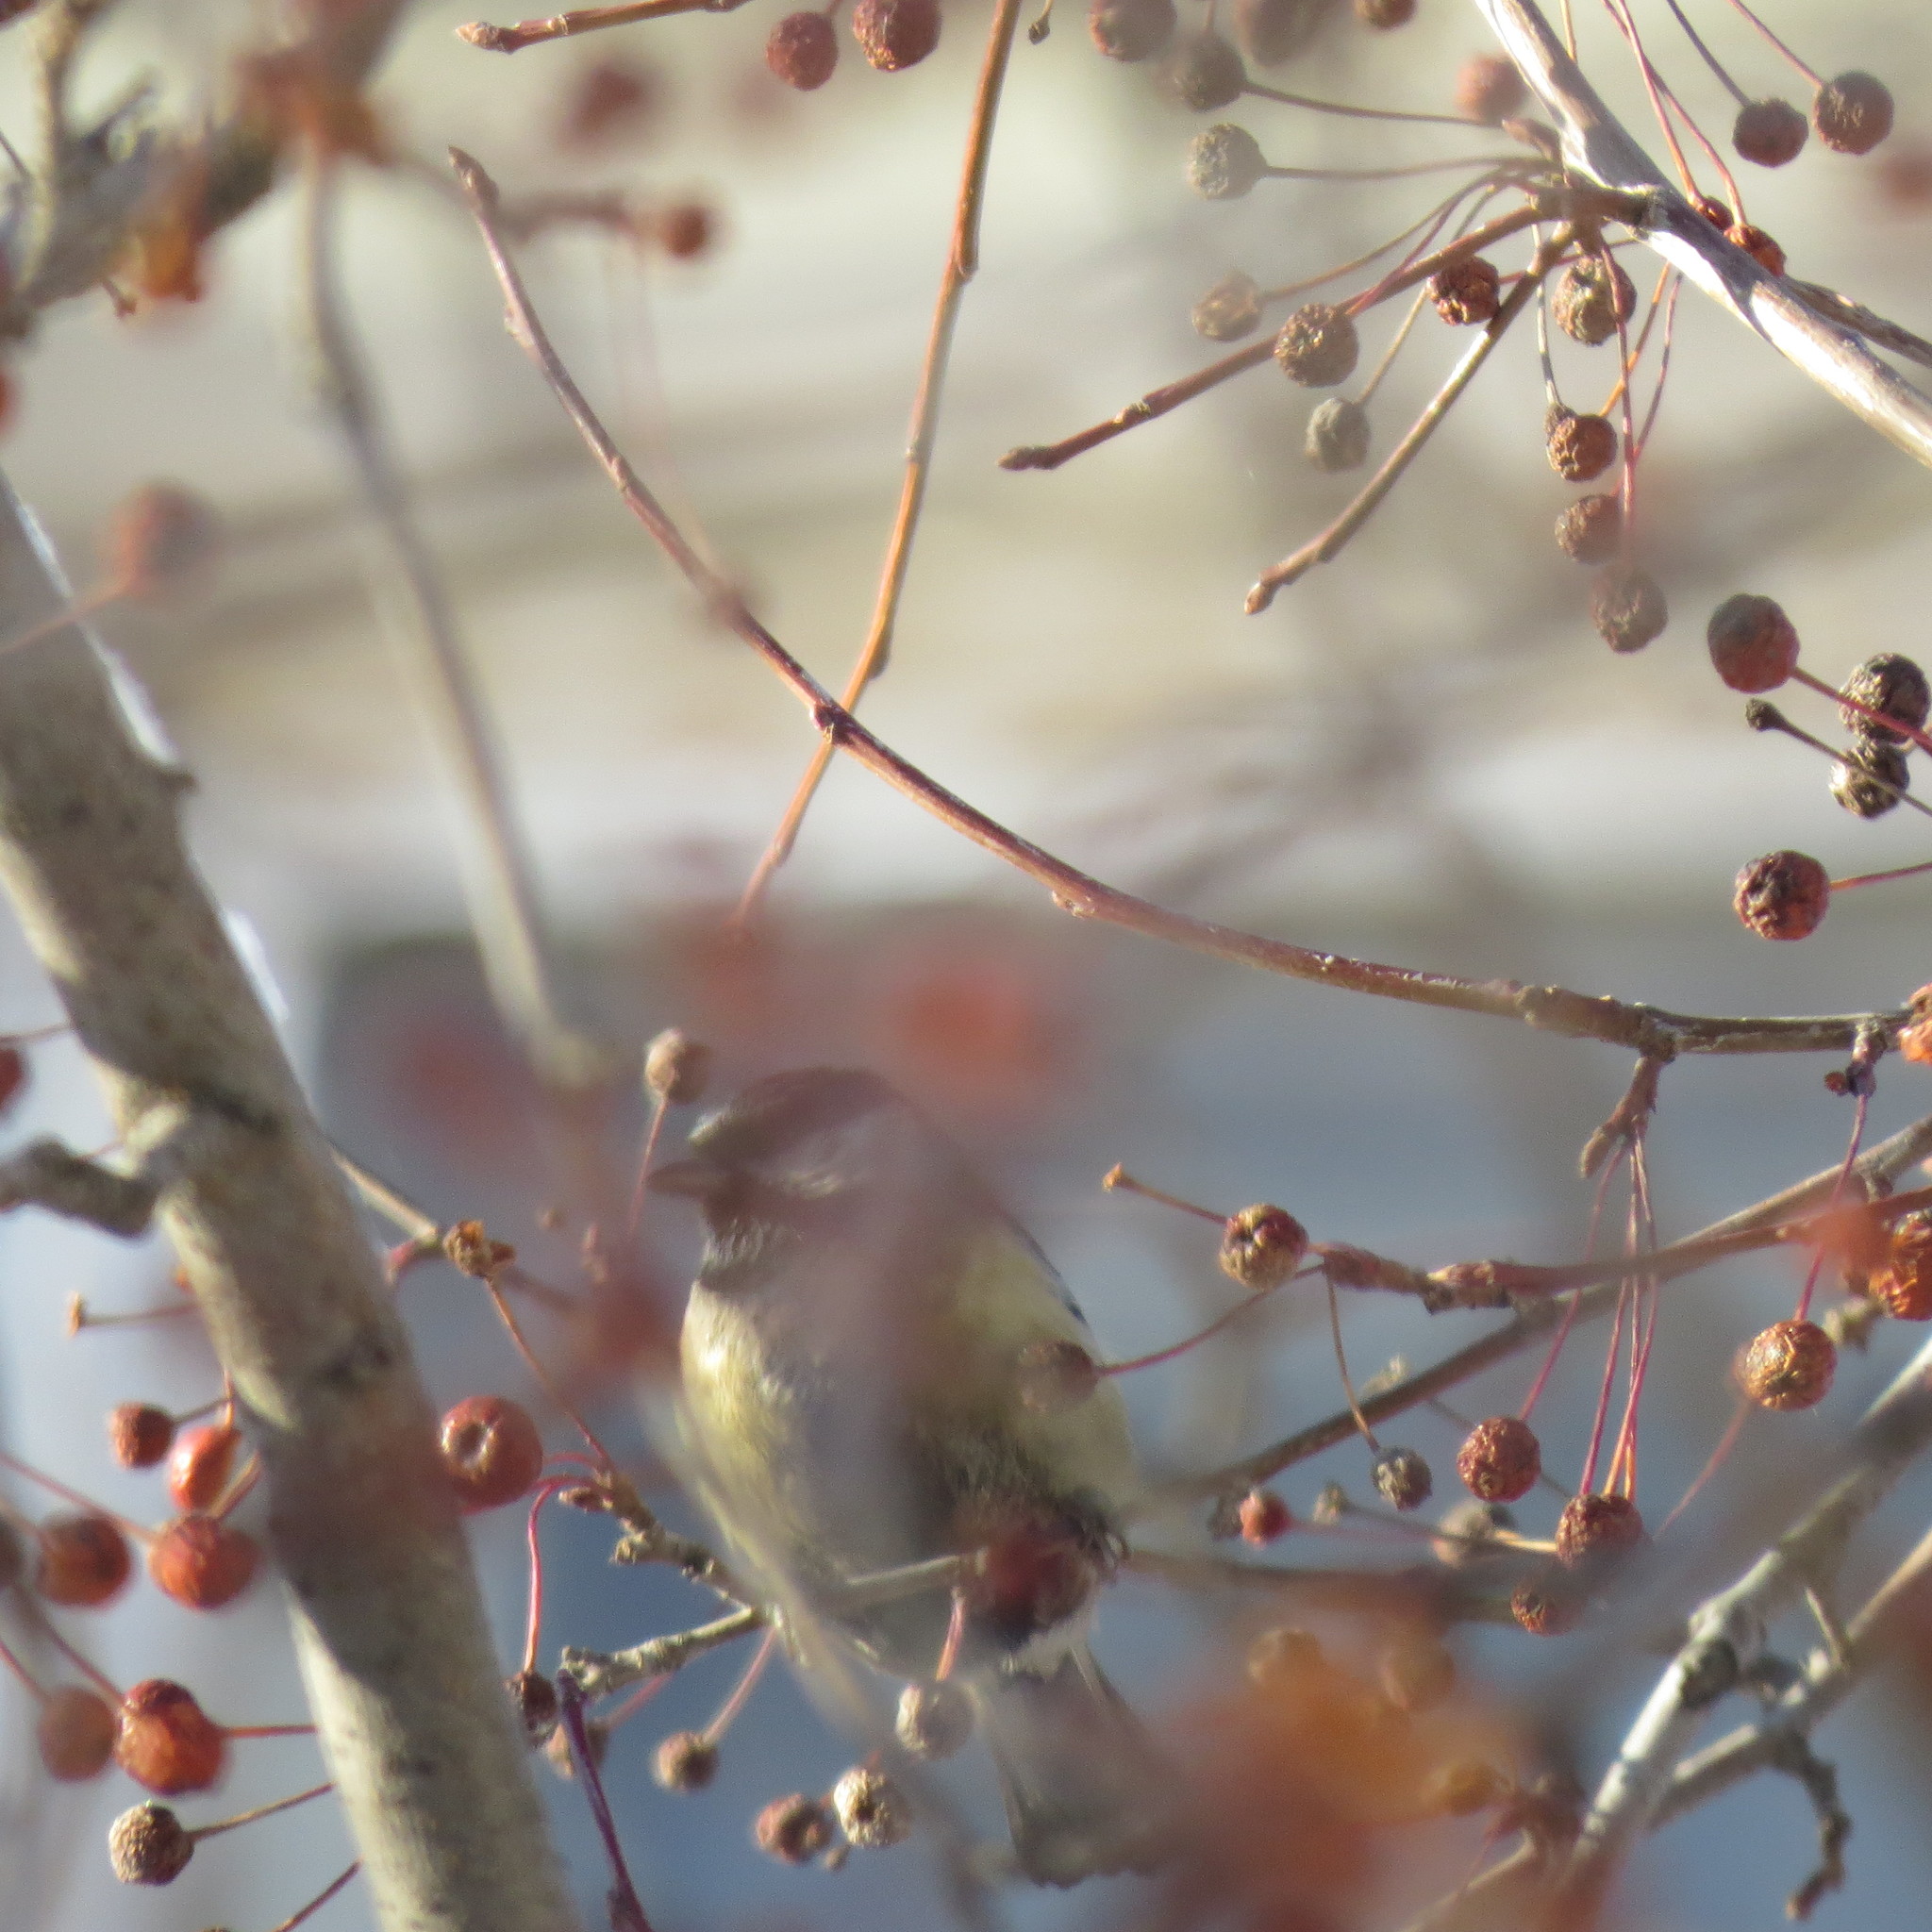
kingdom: Animalia
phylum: Chordata
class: Aves
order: Passeriformes
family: Paridae
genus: Parus
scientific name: Parus major
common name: Great tit
